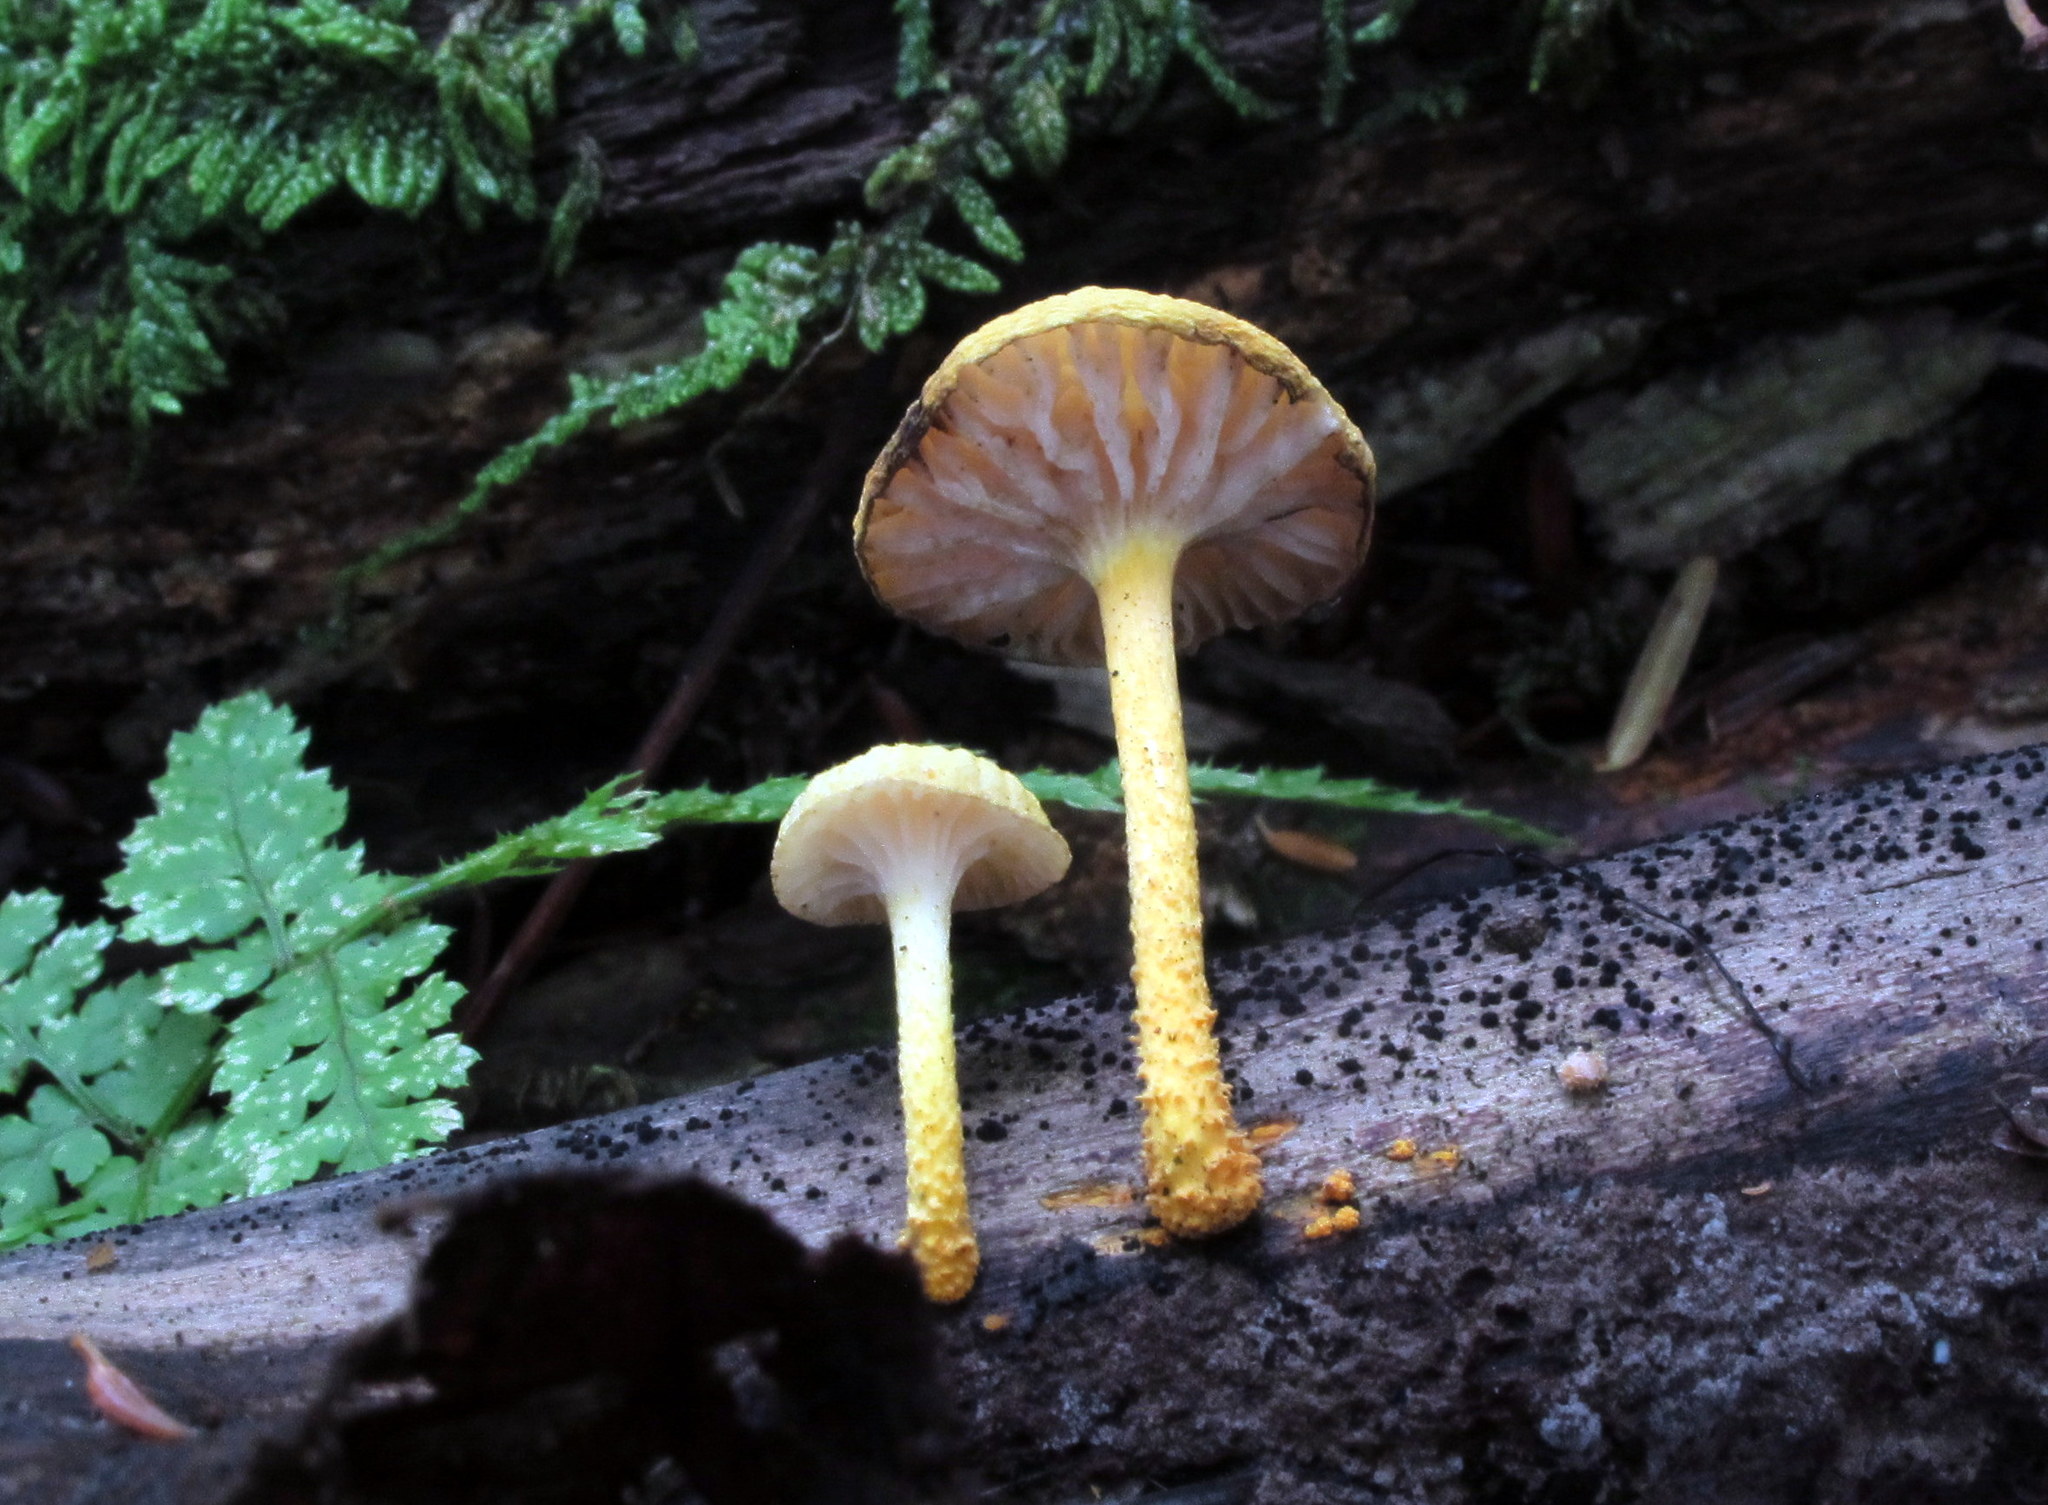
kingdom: Fungi
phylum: Basidiomycota
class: Agaricomycetes
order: Agaricales
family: Physalacriaceae
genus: Cyptotrama
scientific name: Cyptotrama chrysopepla
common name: Golden coincap
